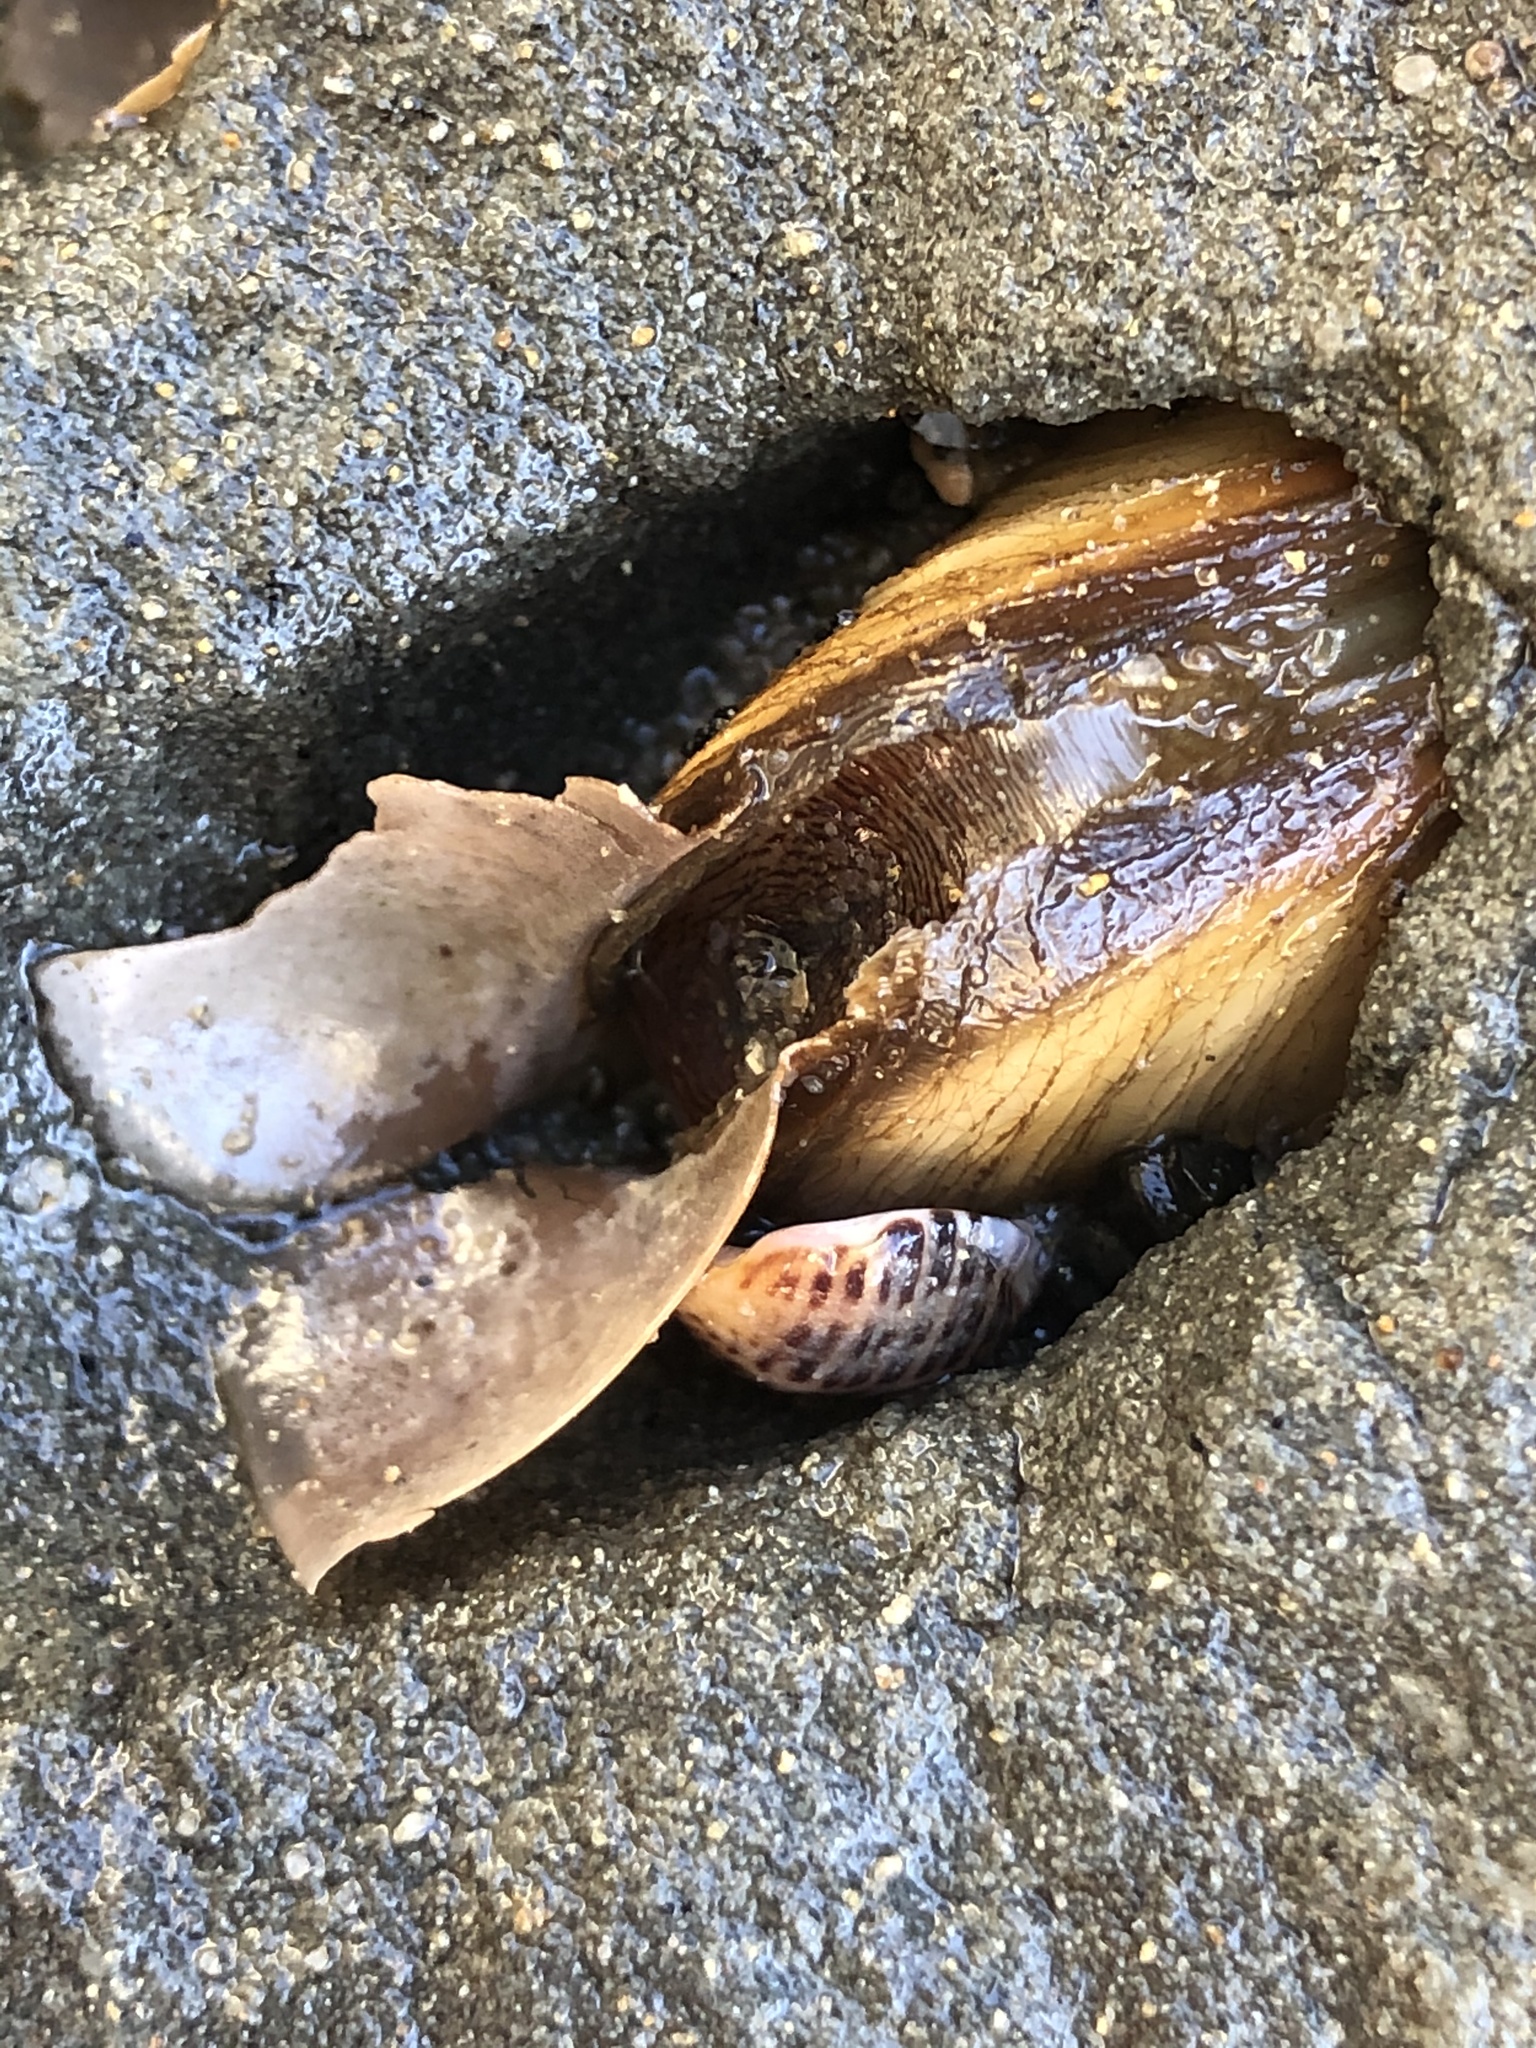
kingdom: Animalia
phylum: Mollusca
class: Bivalvia
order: Myida
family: Pholadidae
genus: Penitella
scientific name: Penitella penita
